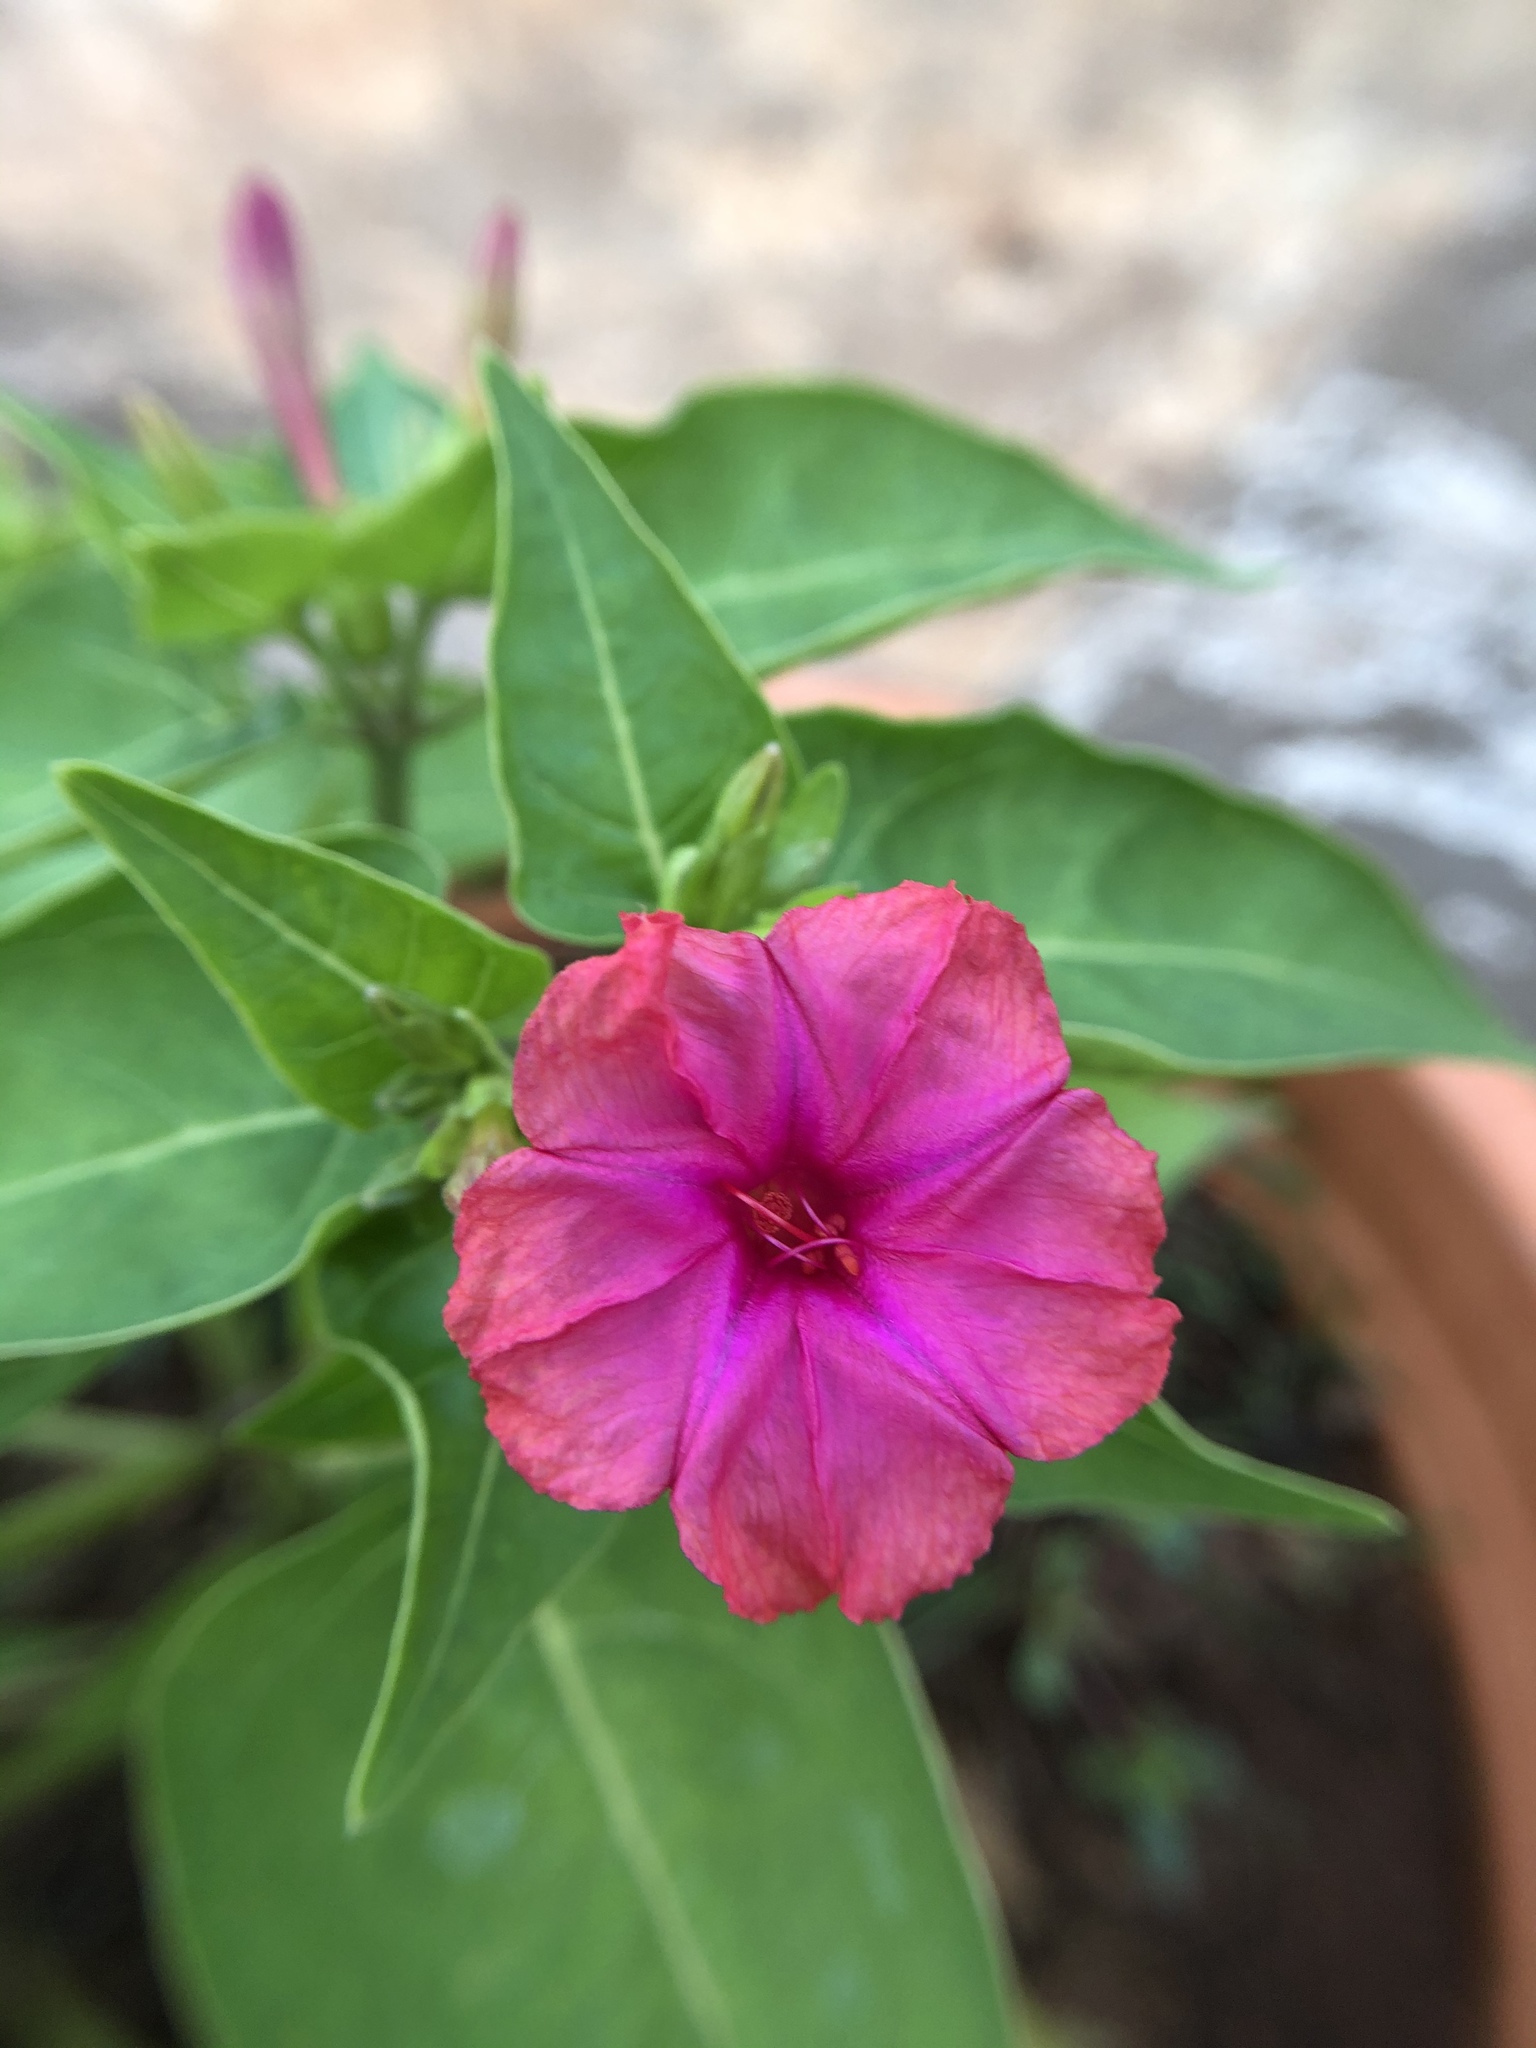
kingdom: Plantae
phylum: Tracheophyta
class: Magnoliopsida
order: Caryophyllales
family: Nyctaginaceae
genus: Mirabilis
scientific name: Mirabilis jalapa
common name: Marvel-of-peru
